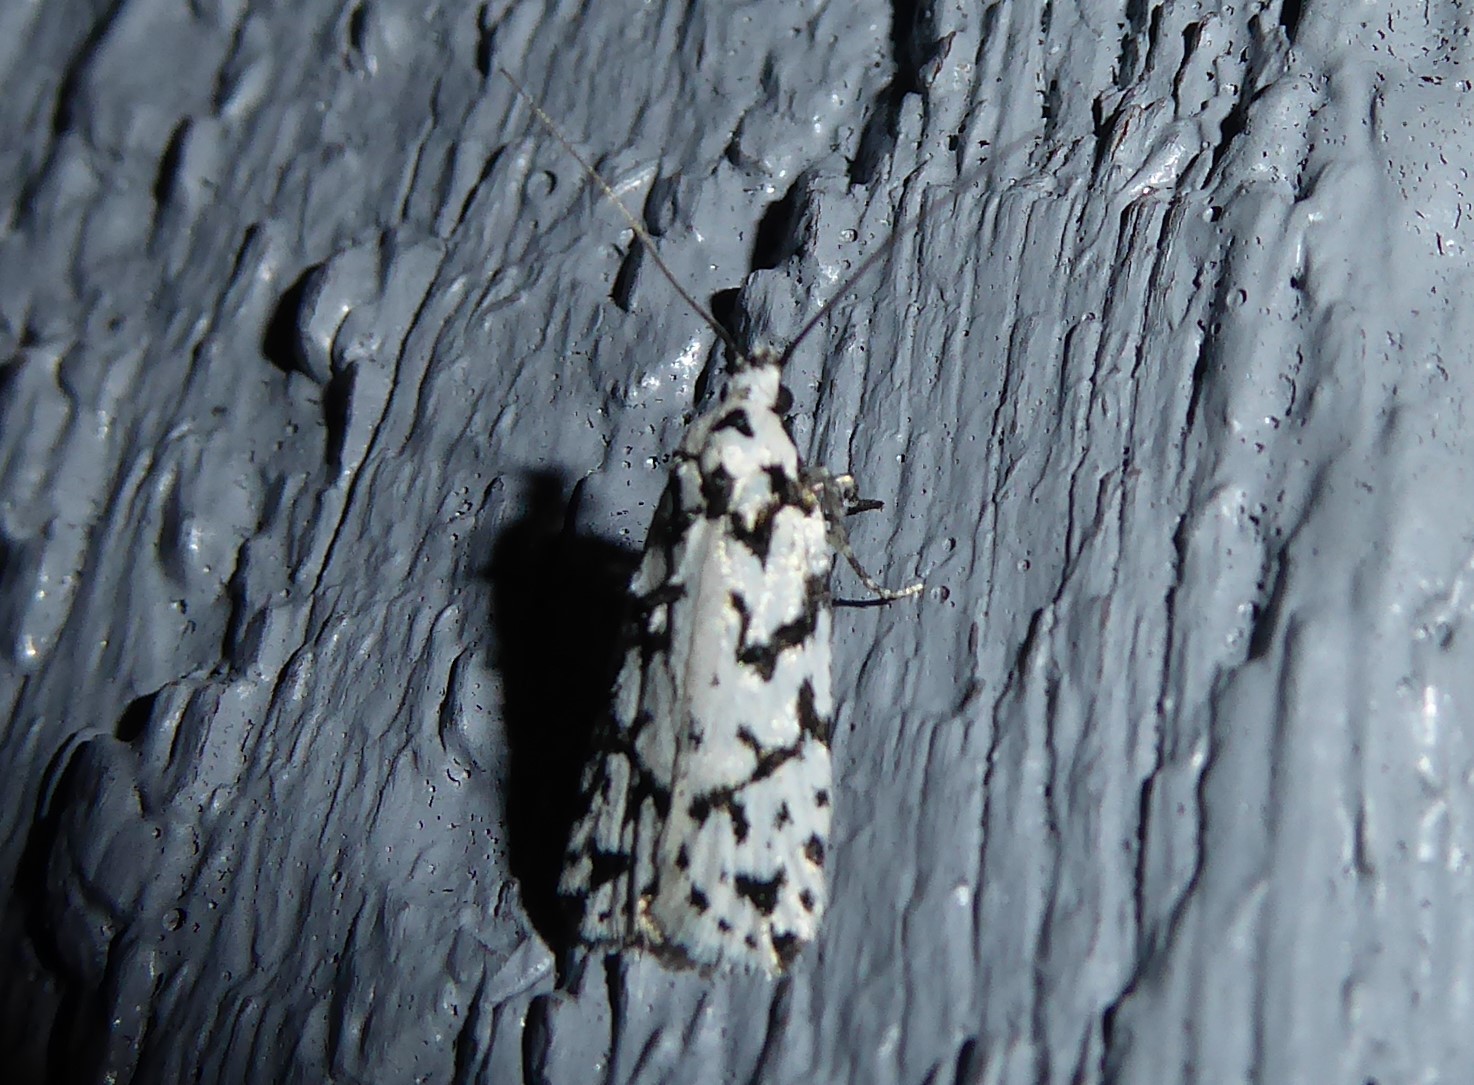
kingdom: Animalia
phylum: Arthropoda
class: Insecta
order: Lepidoptera
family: Oecophoridae
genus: Izatha
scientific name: Izatha katadiktya
